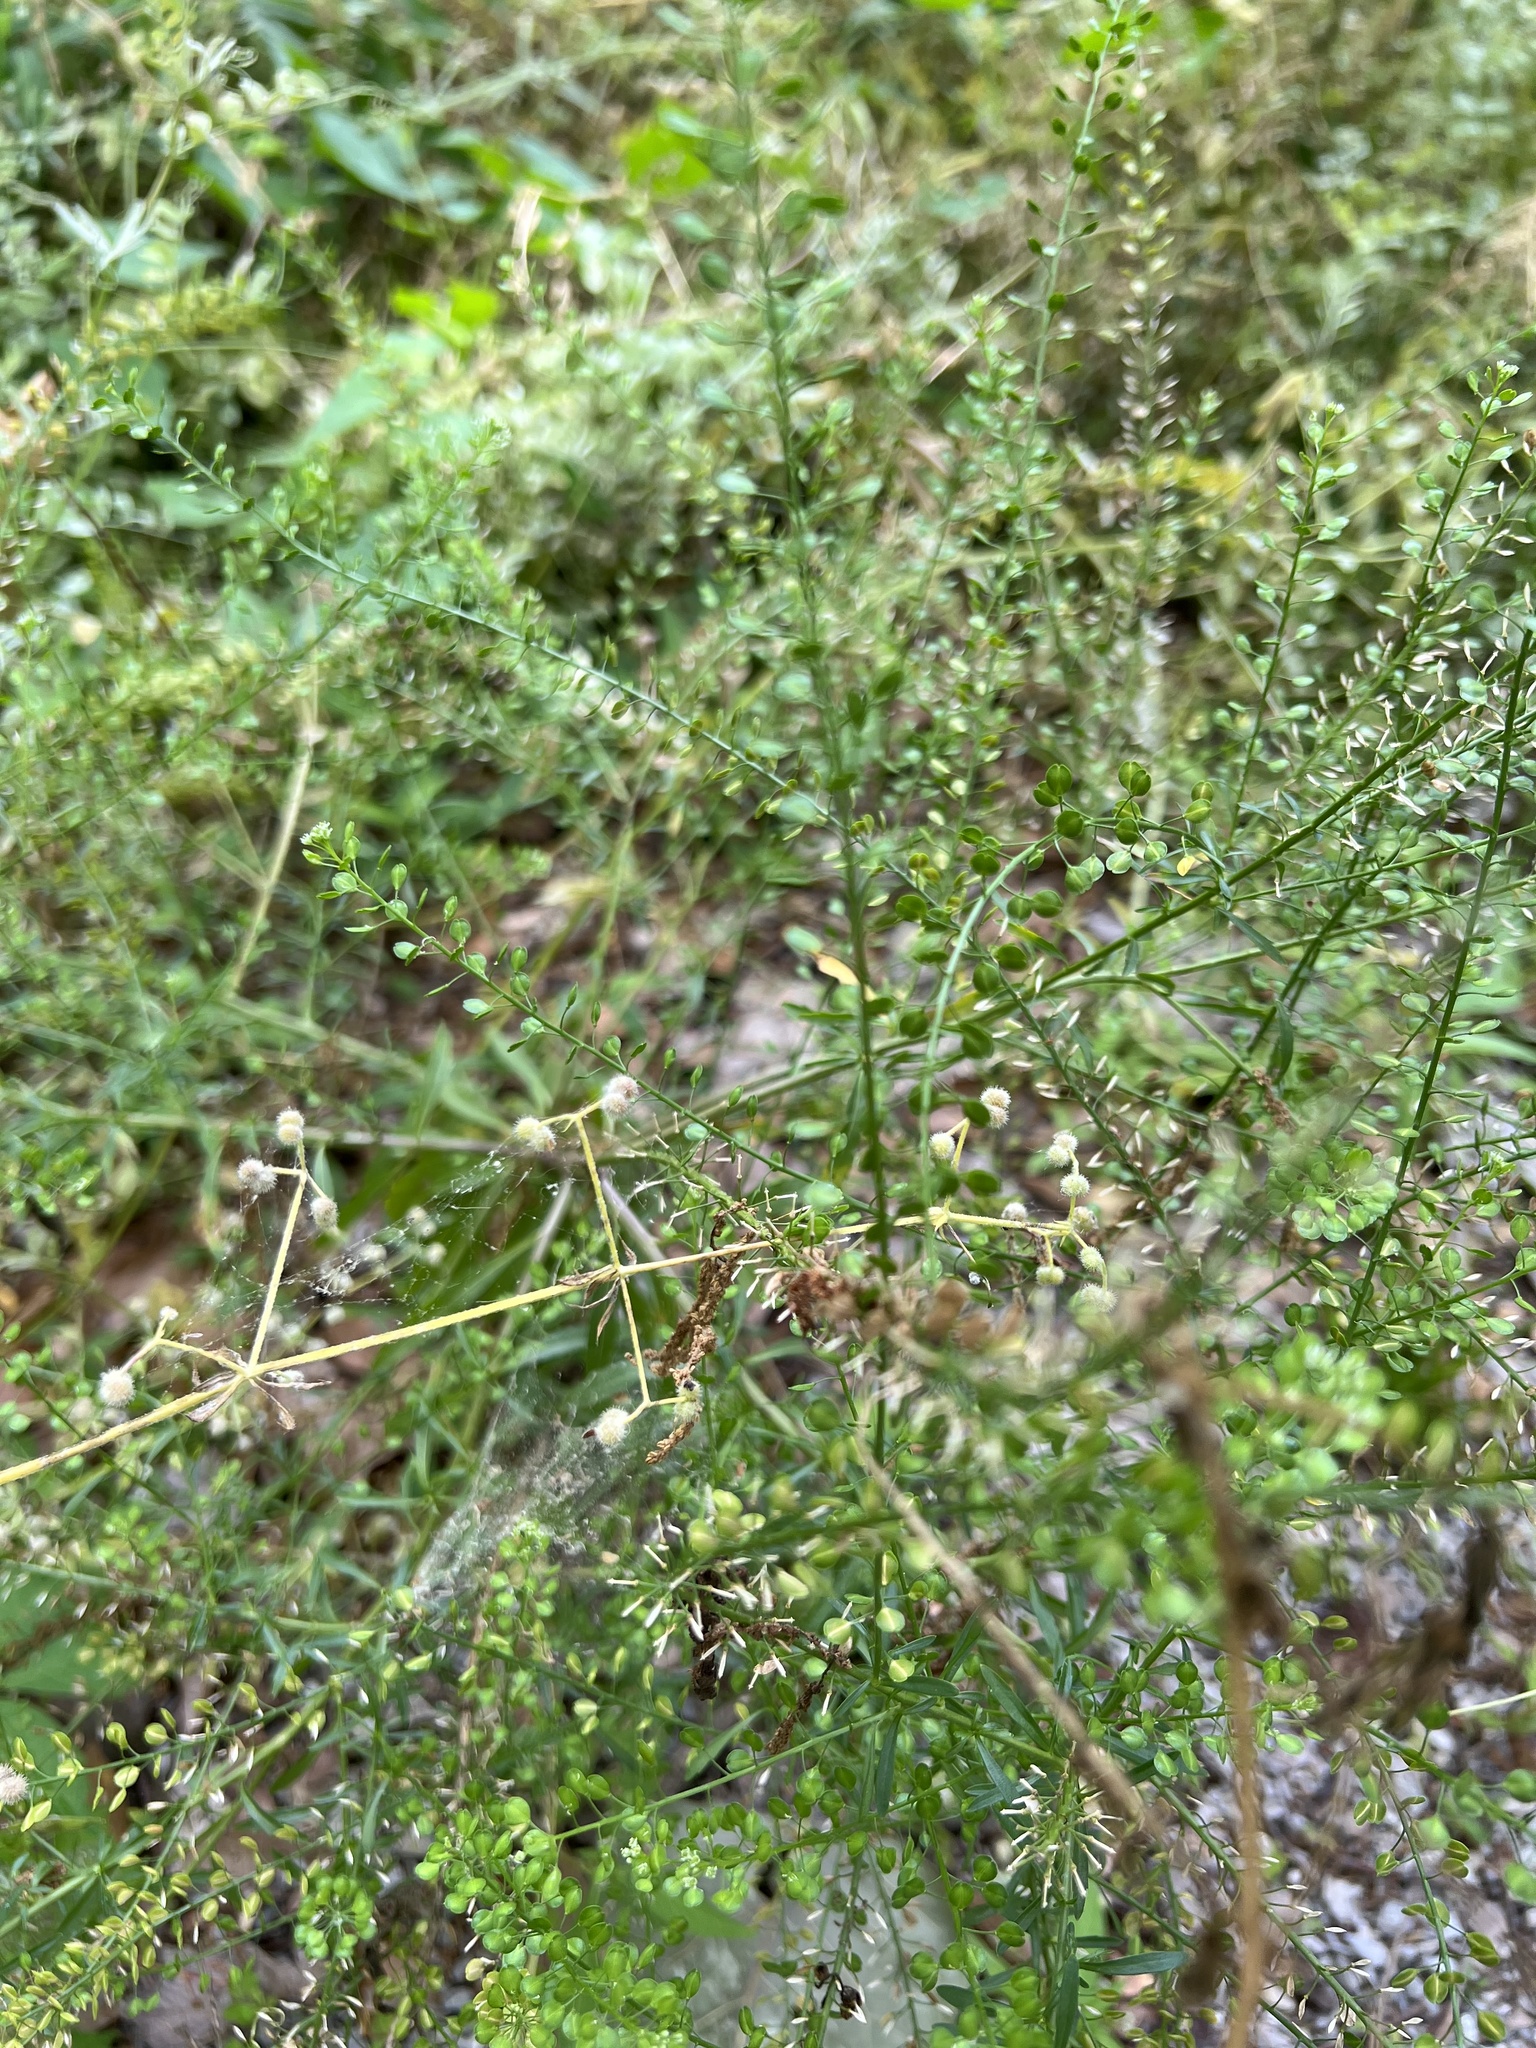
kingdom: Plantae
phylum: Tracheophyta
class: Magnoliopsida
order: Brassicales
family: Brassicaceae
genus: Lepidium
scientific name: Lepidium virginicum
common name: Least pepperwort
